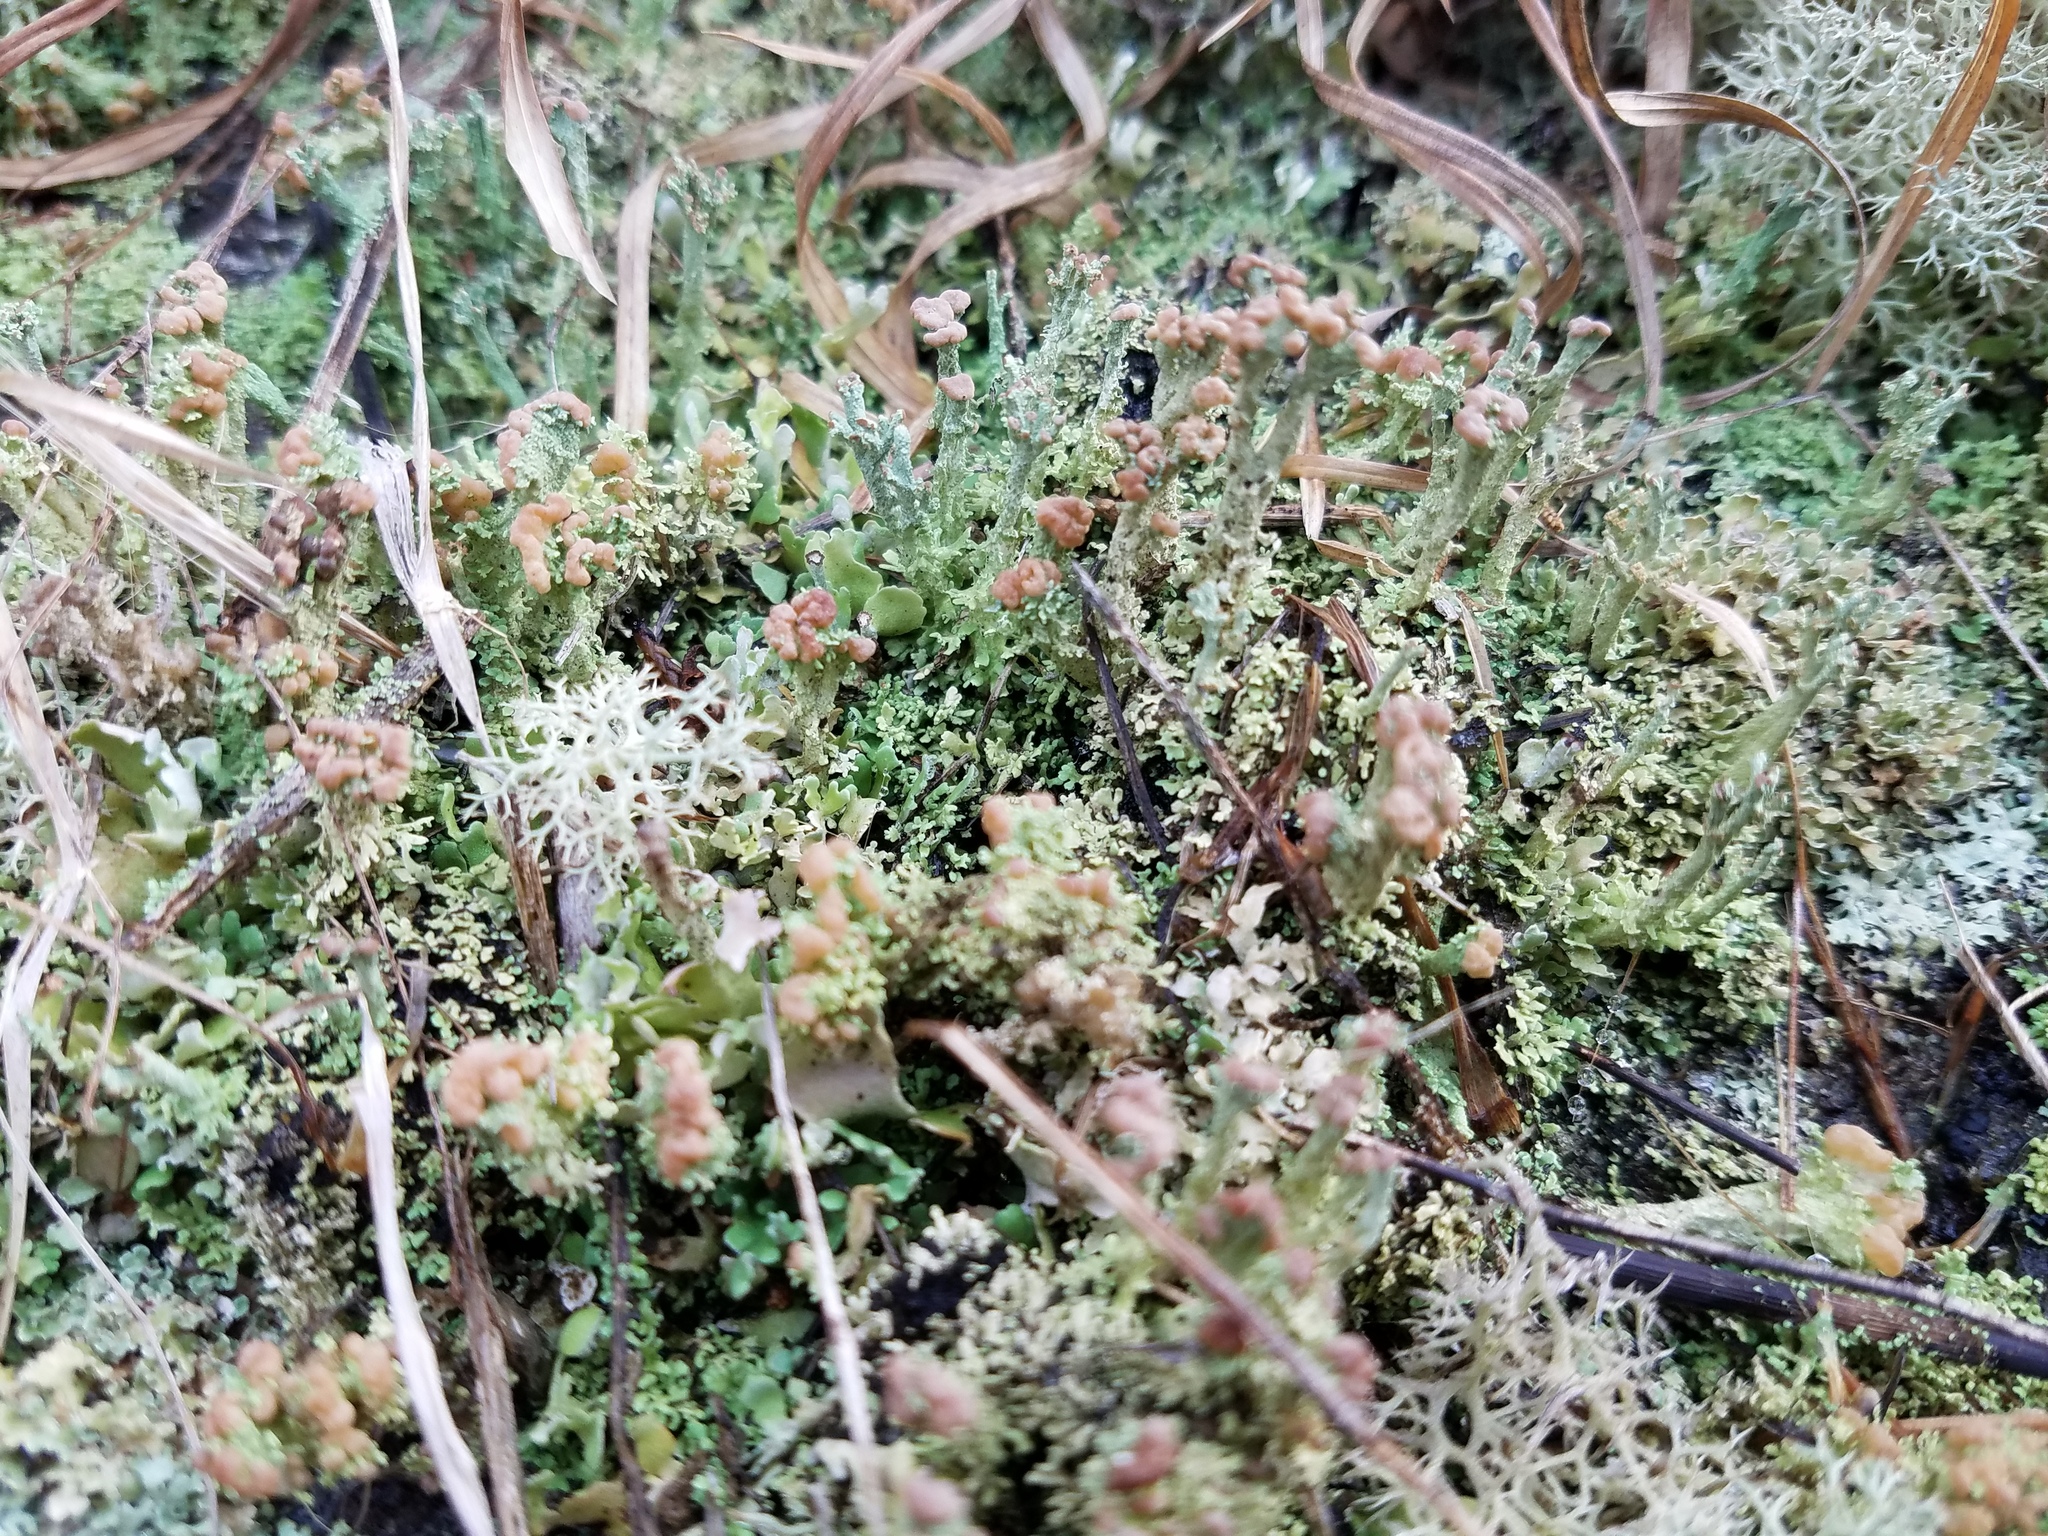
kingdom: Fungi
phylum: Ascomycota
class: Lecanoromycetes
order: Lecanorales
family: Cladoniaceae
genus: Cladonia
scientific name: Cladonia peziziformis
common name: Cup lichen
